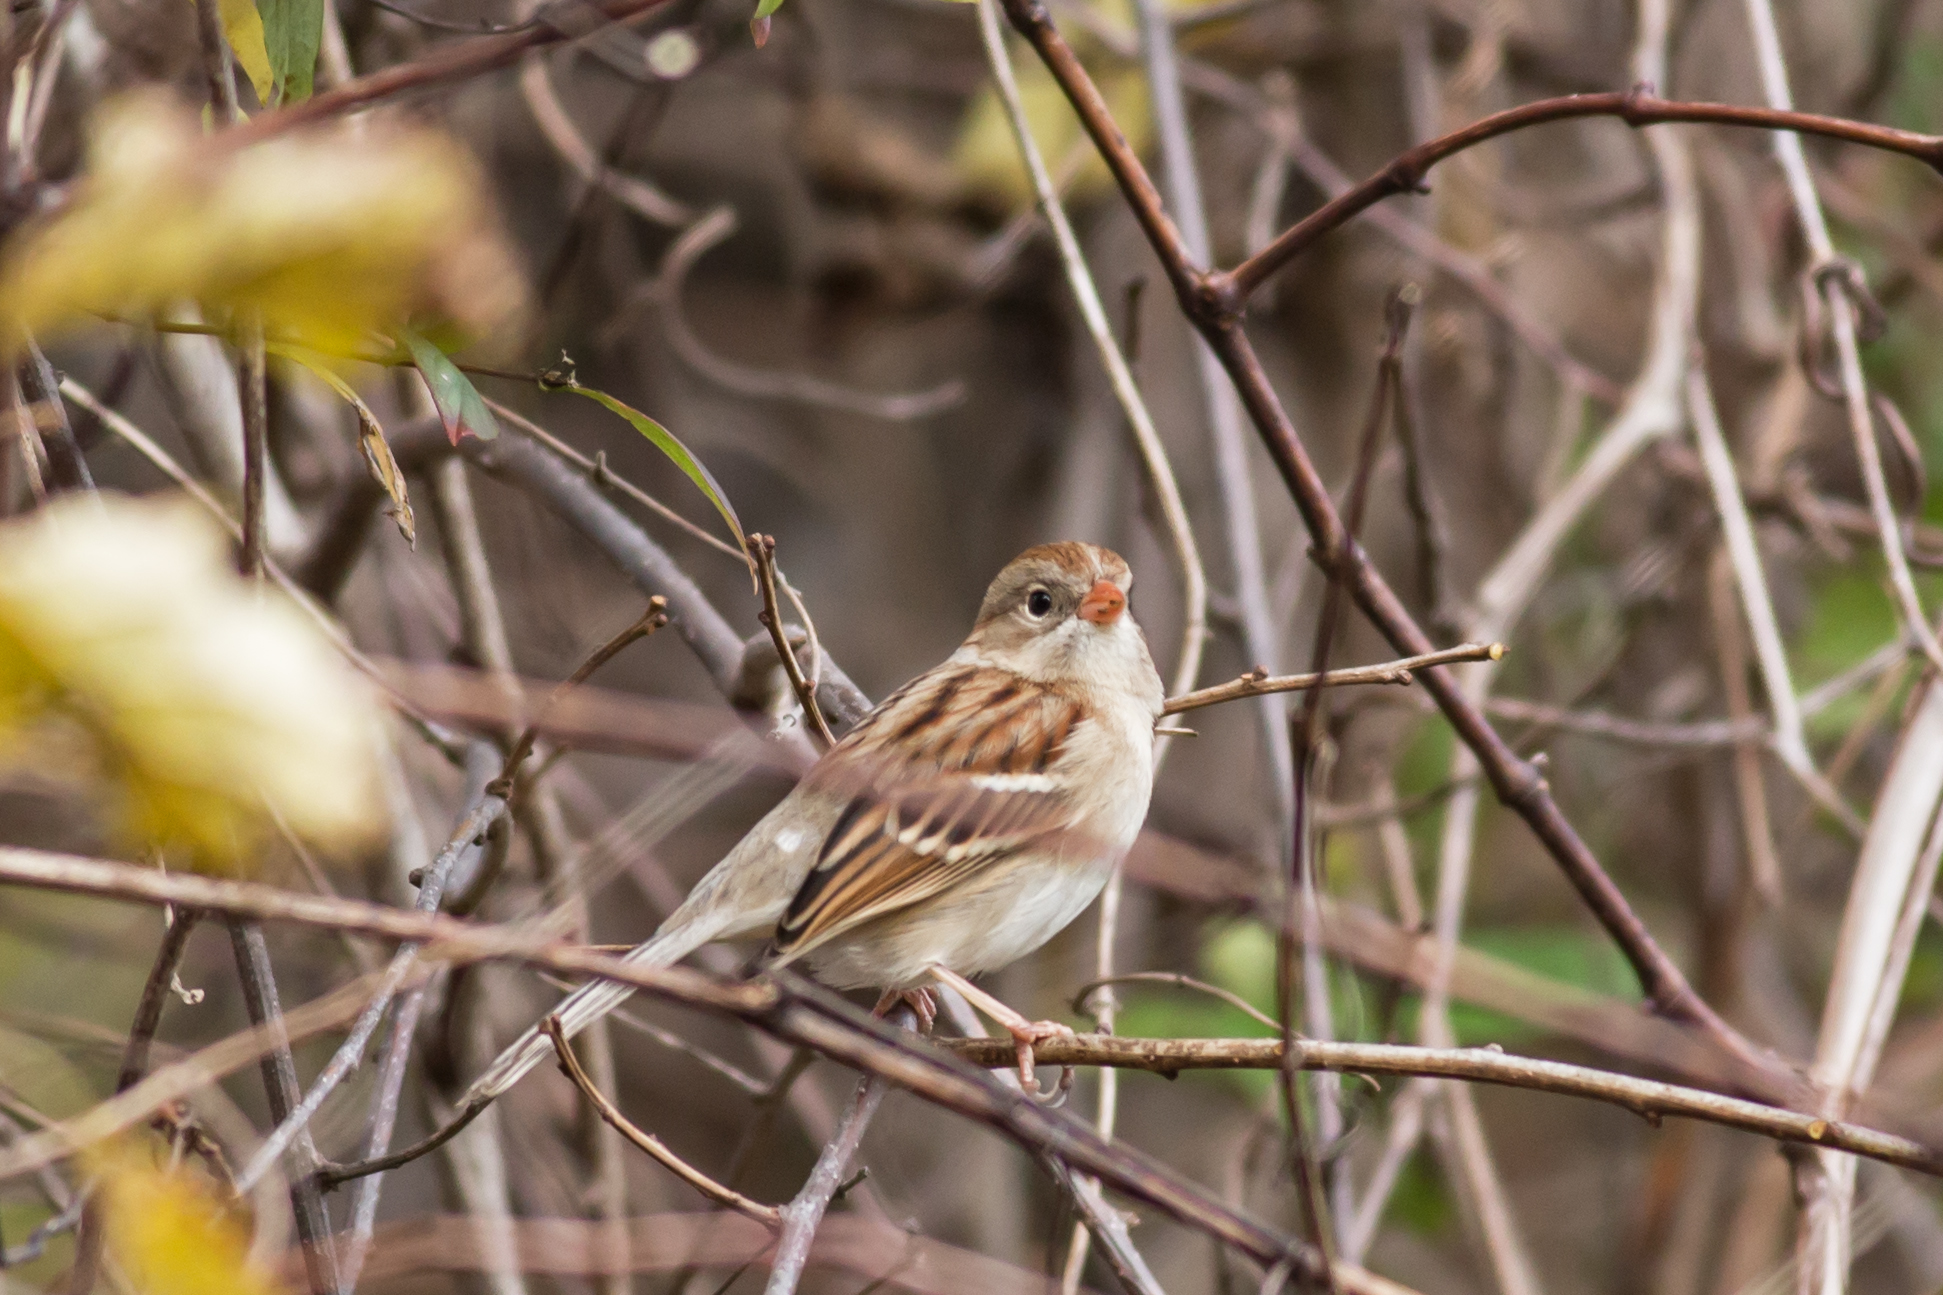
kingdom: Animalia
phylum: Chordata
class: Aves
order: Passeriformes
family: Passerellidae
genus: Spizella
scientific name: Spizella pusilla
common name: Field sparrow
